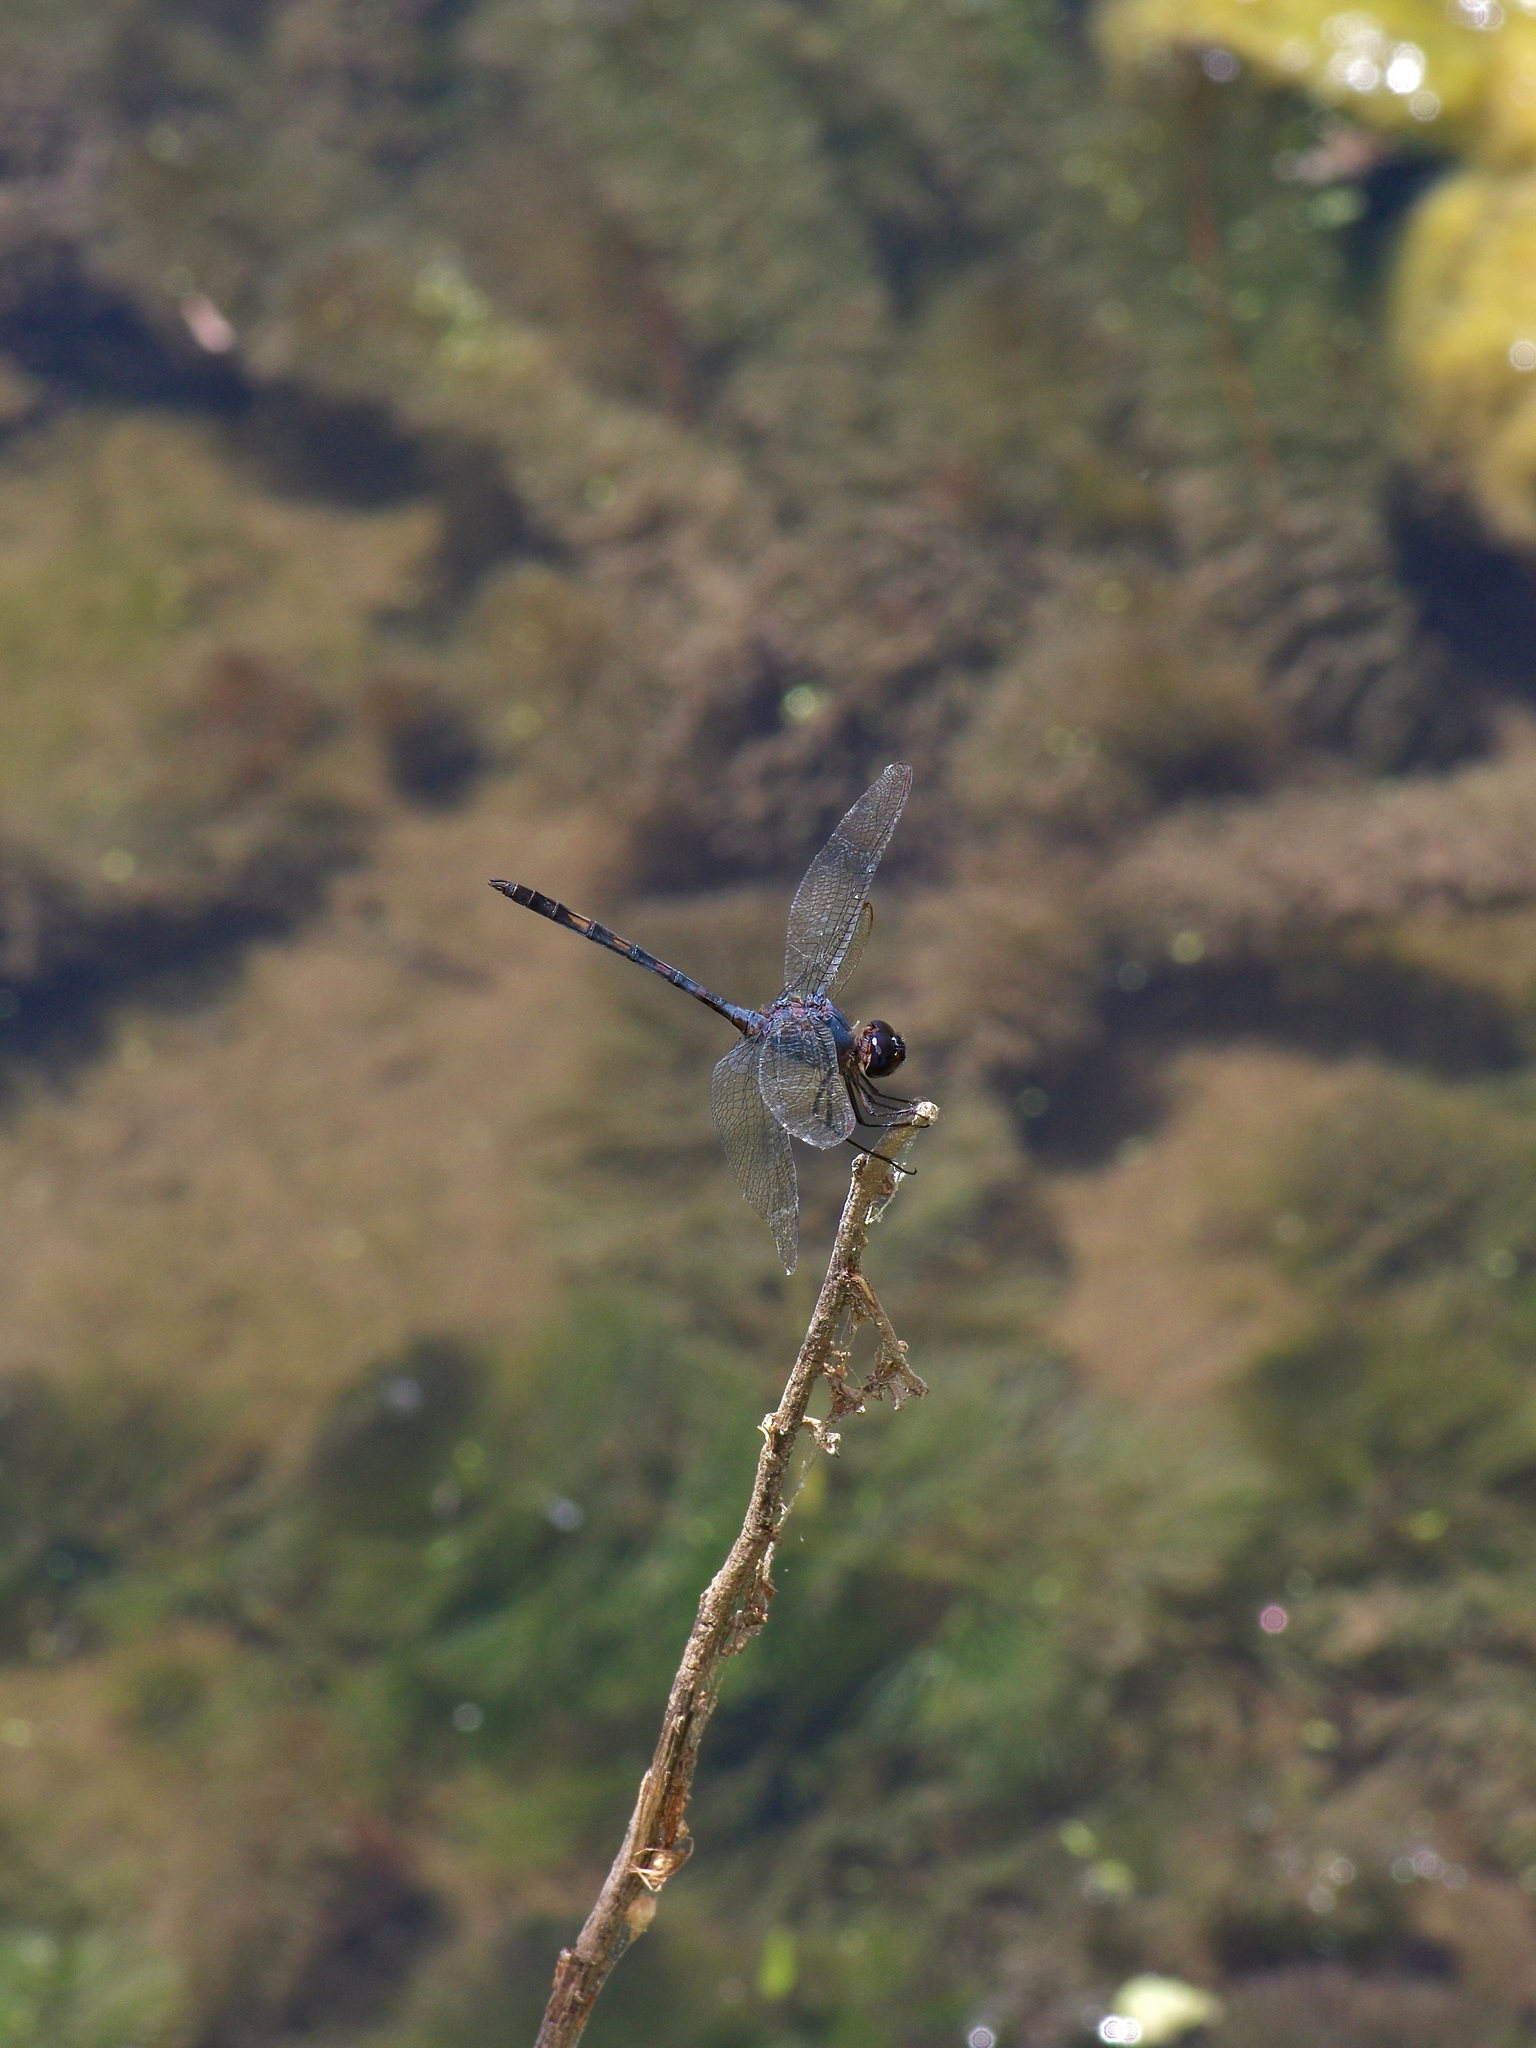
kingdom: Animalia
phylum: Arthropoda
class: Insecta
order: Odonata
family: Libellulidae
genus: Dythemis
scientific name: Dythemis nigrescens
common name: Black setwing
